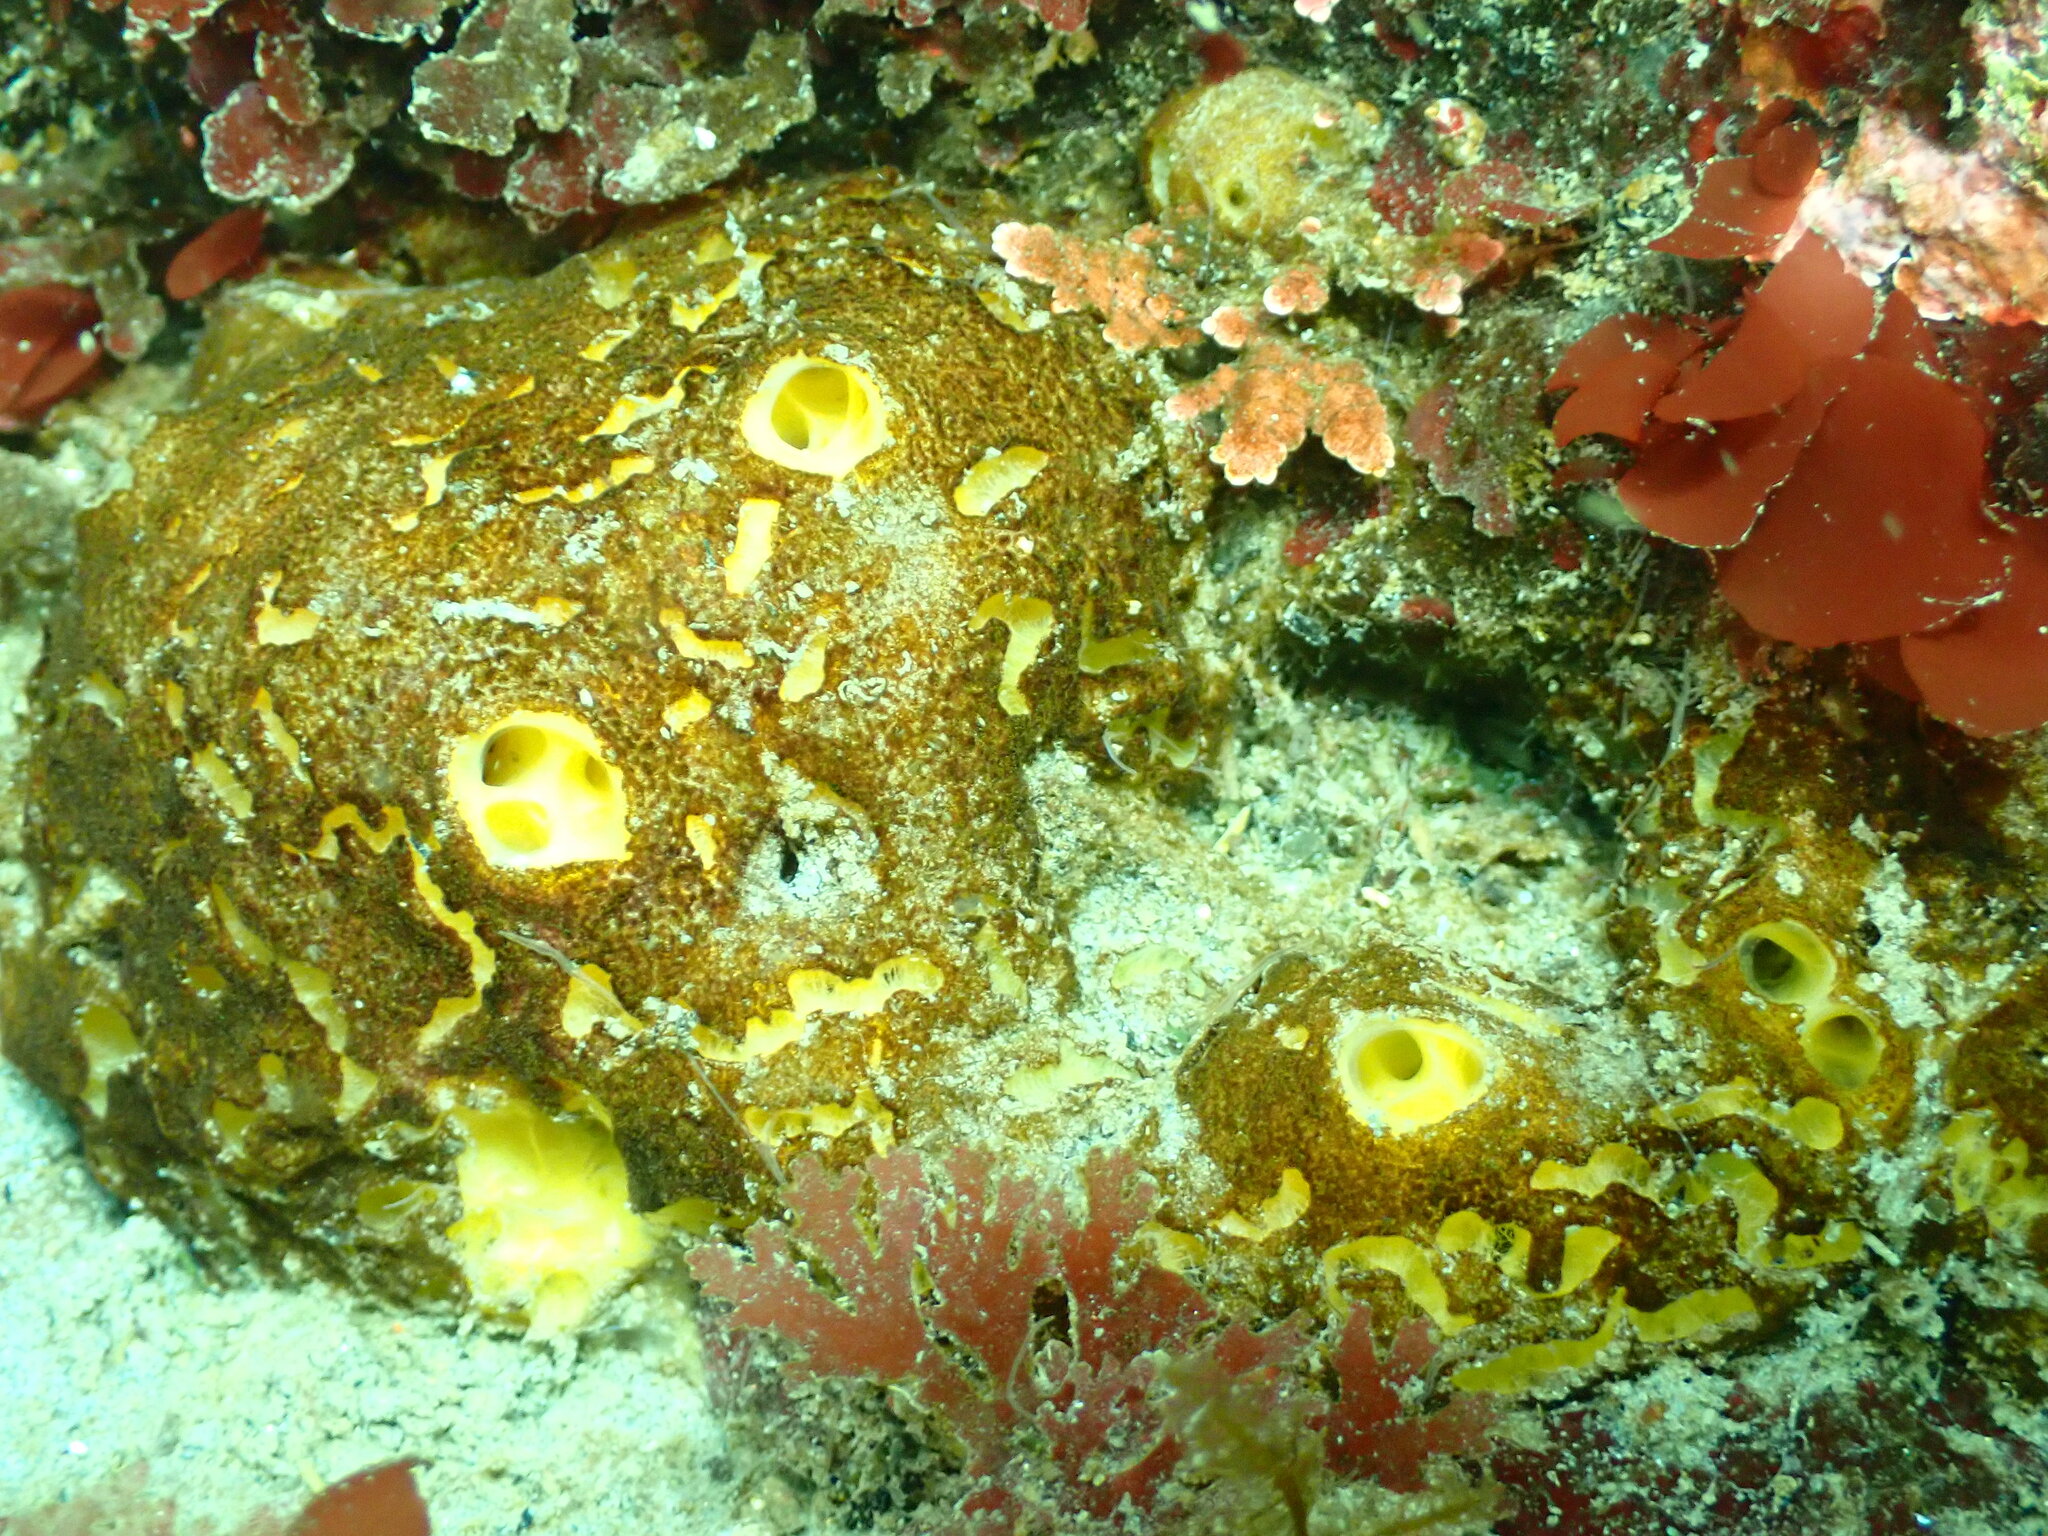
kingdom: Animalia
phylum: Porifera
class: Demospongiae
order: Poecilosclerida
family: Mycalidae
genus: Mycale
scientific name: Mycale toporoki
